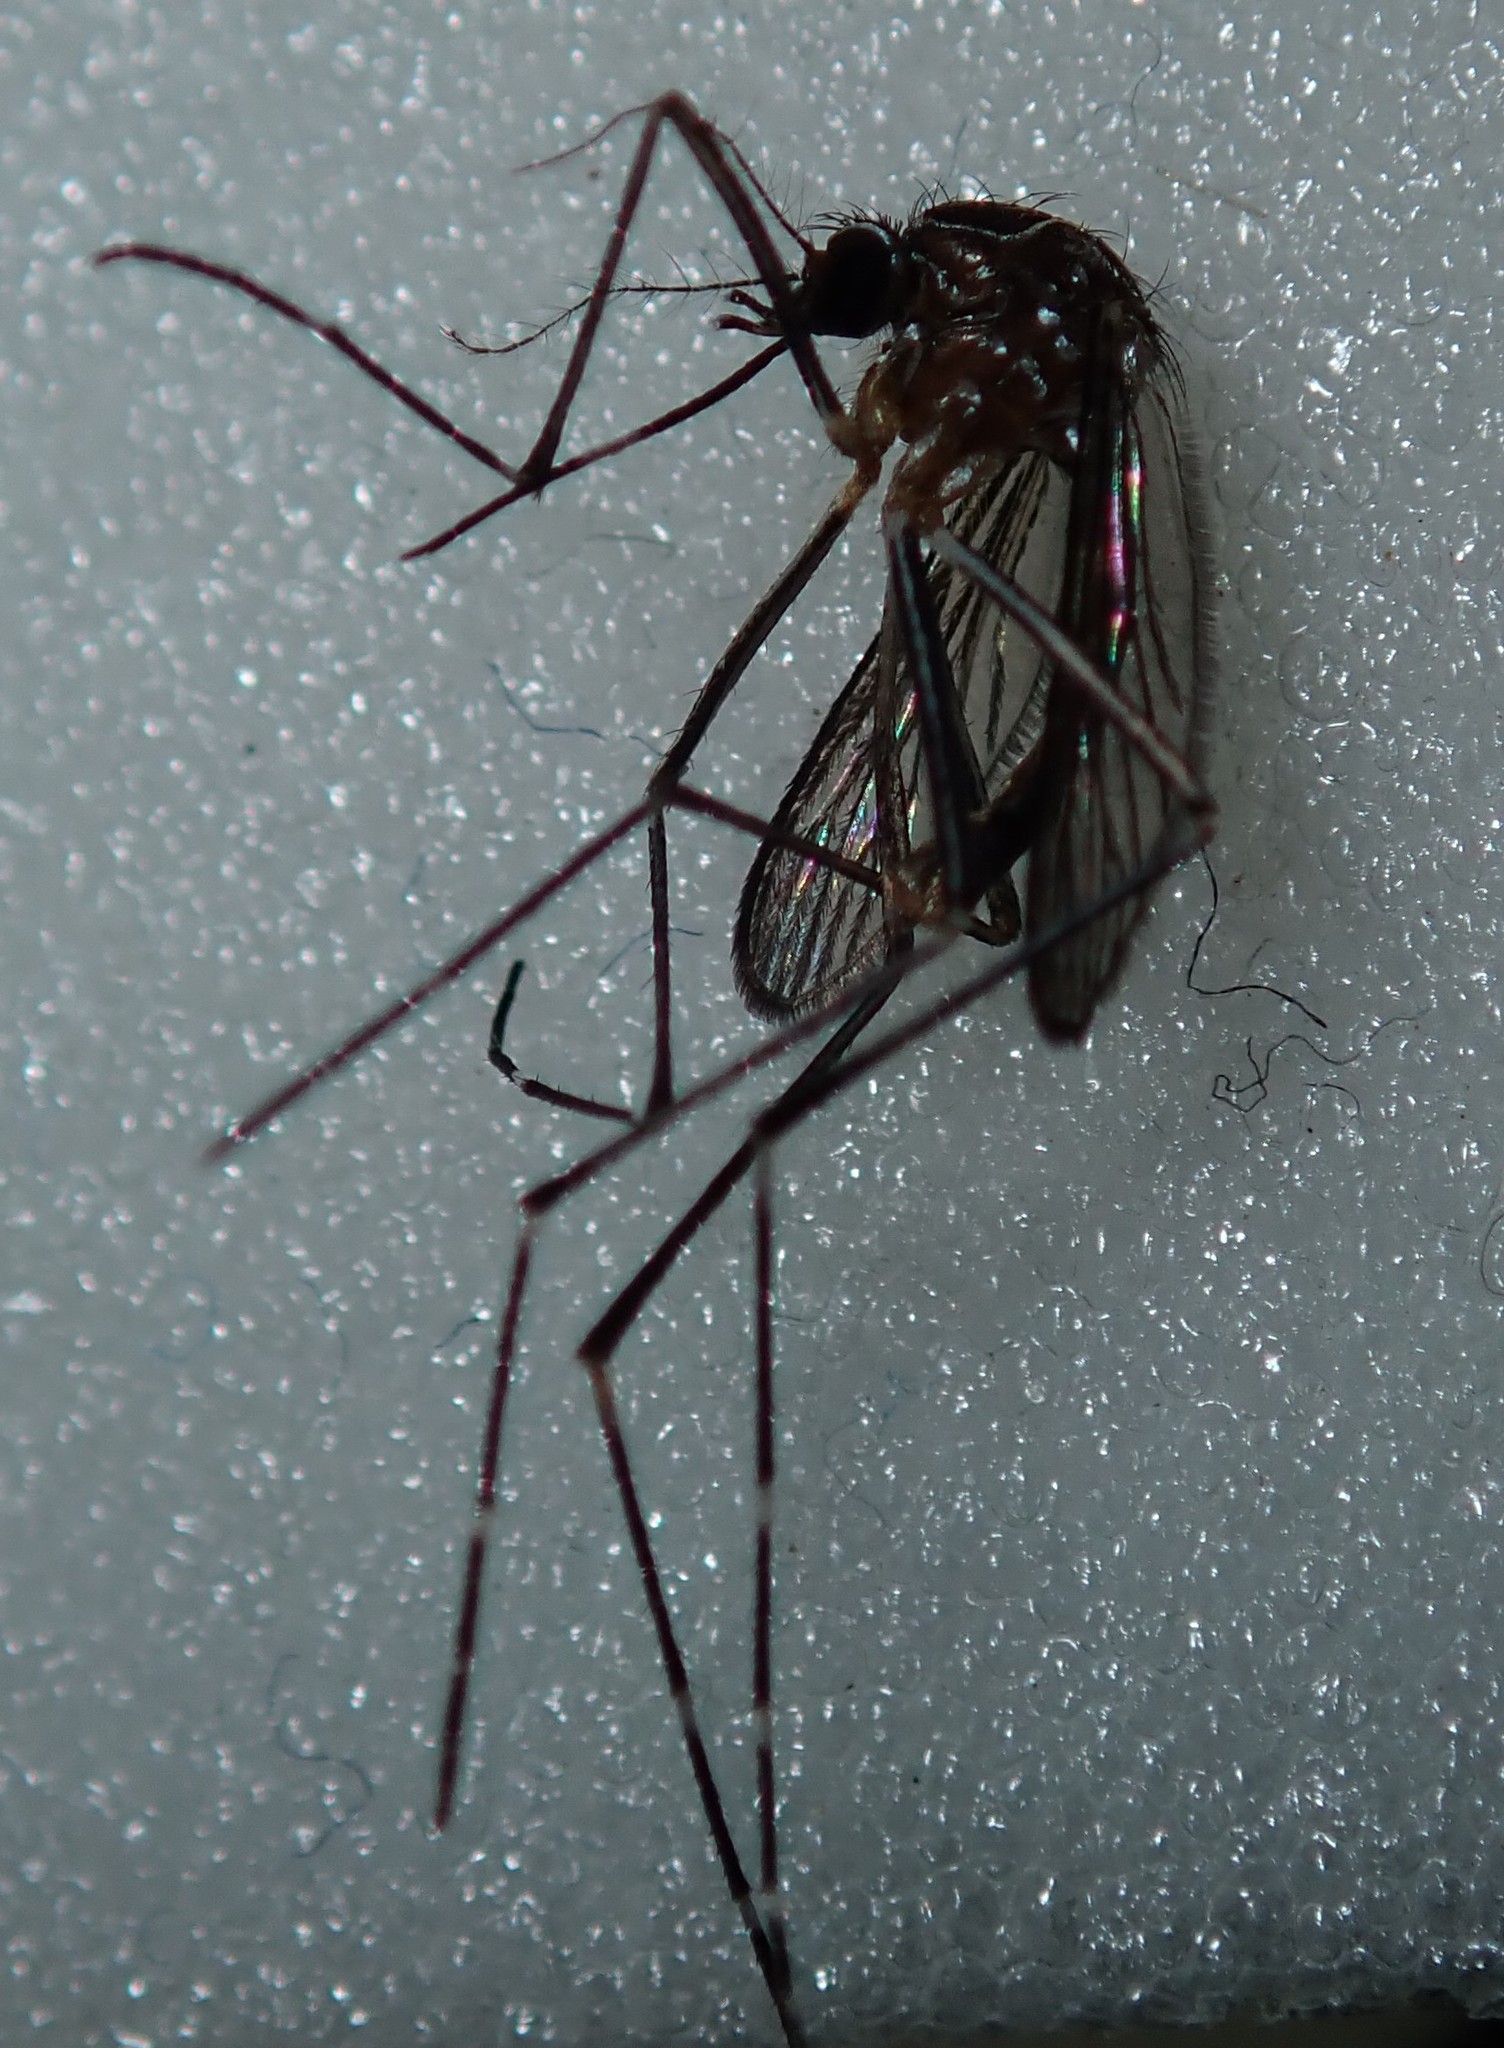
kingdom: Animalia
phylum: Arthropoda
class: Insecta
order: Diptera
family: Culicidae
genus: Aedes
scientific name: Aedes notoscriptus
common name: Australian backyard mosquito
